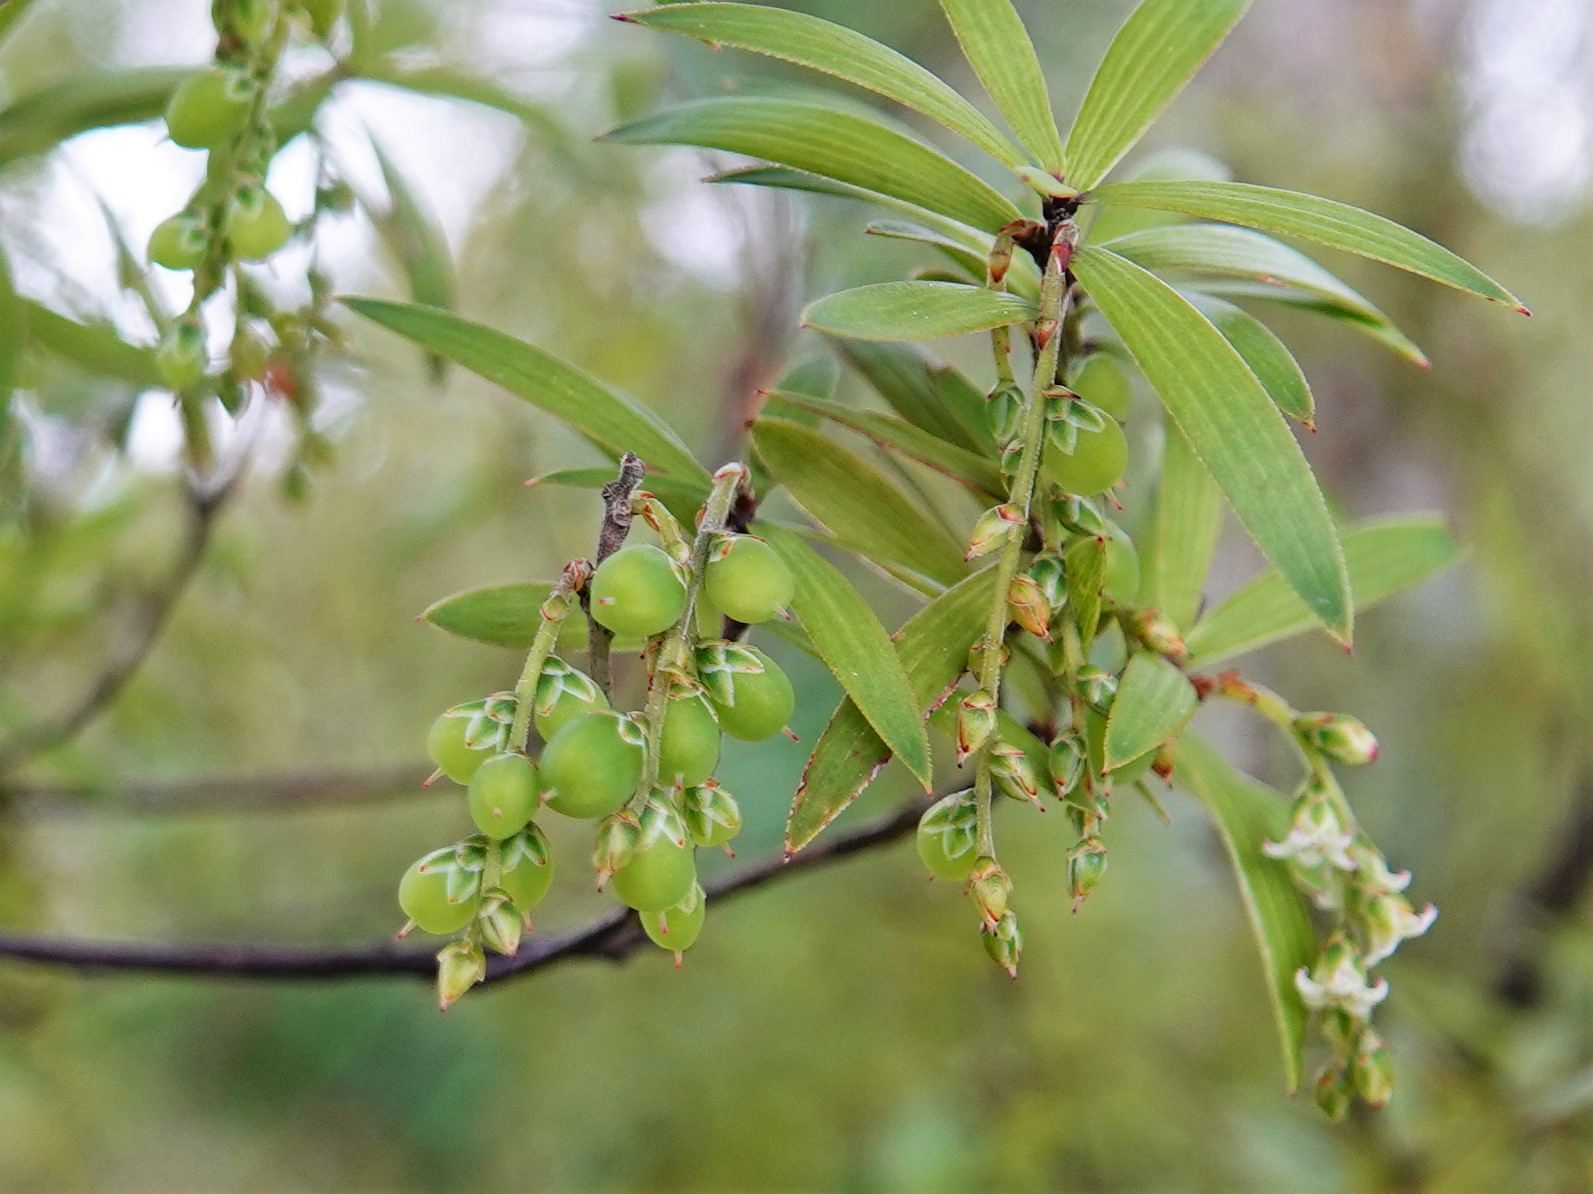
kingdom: Plantae
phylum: Tracheophyta
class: Magnoliopsida
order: Ericales
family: Ericaceae
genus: Leucopogon
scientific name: Leucopogon fasciculatus
